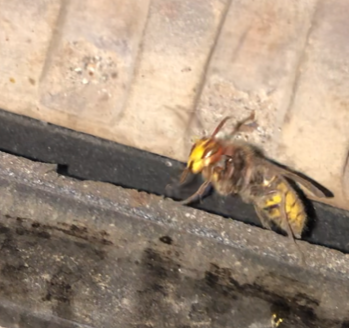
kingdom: Animalia
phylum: Arthropoda
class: Insecta
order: Hymenoptera
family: Vespidae
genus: Vespa
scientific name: Vespa crabro
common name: Hornet
